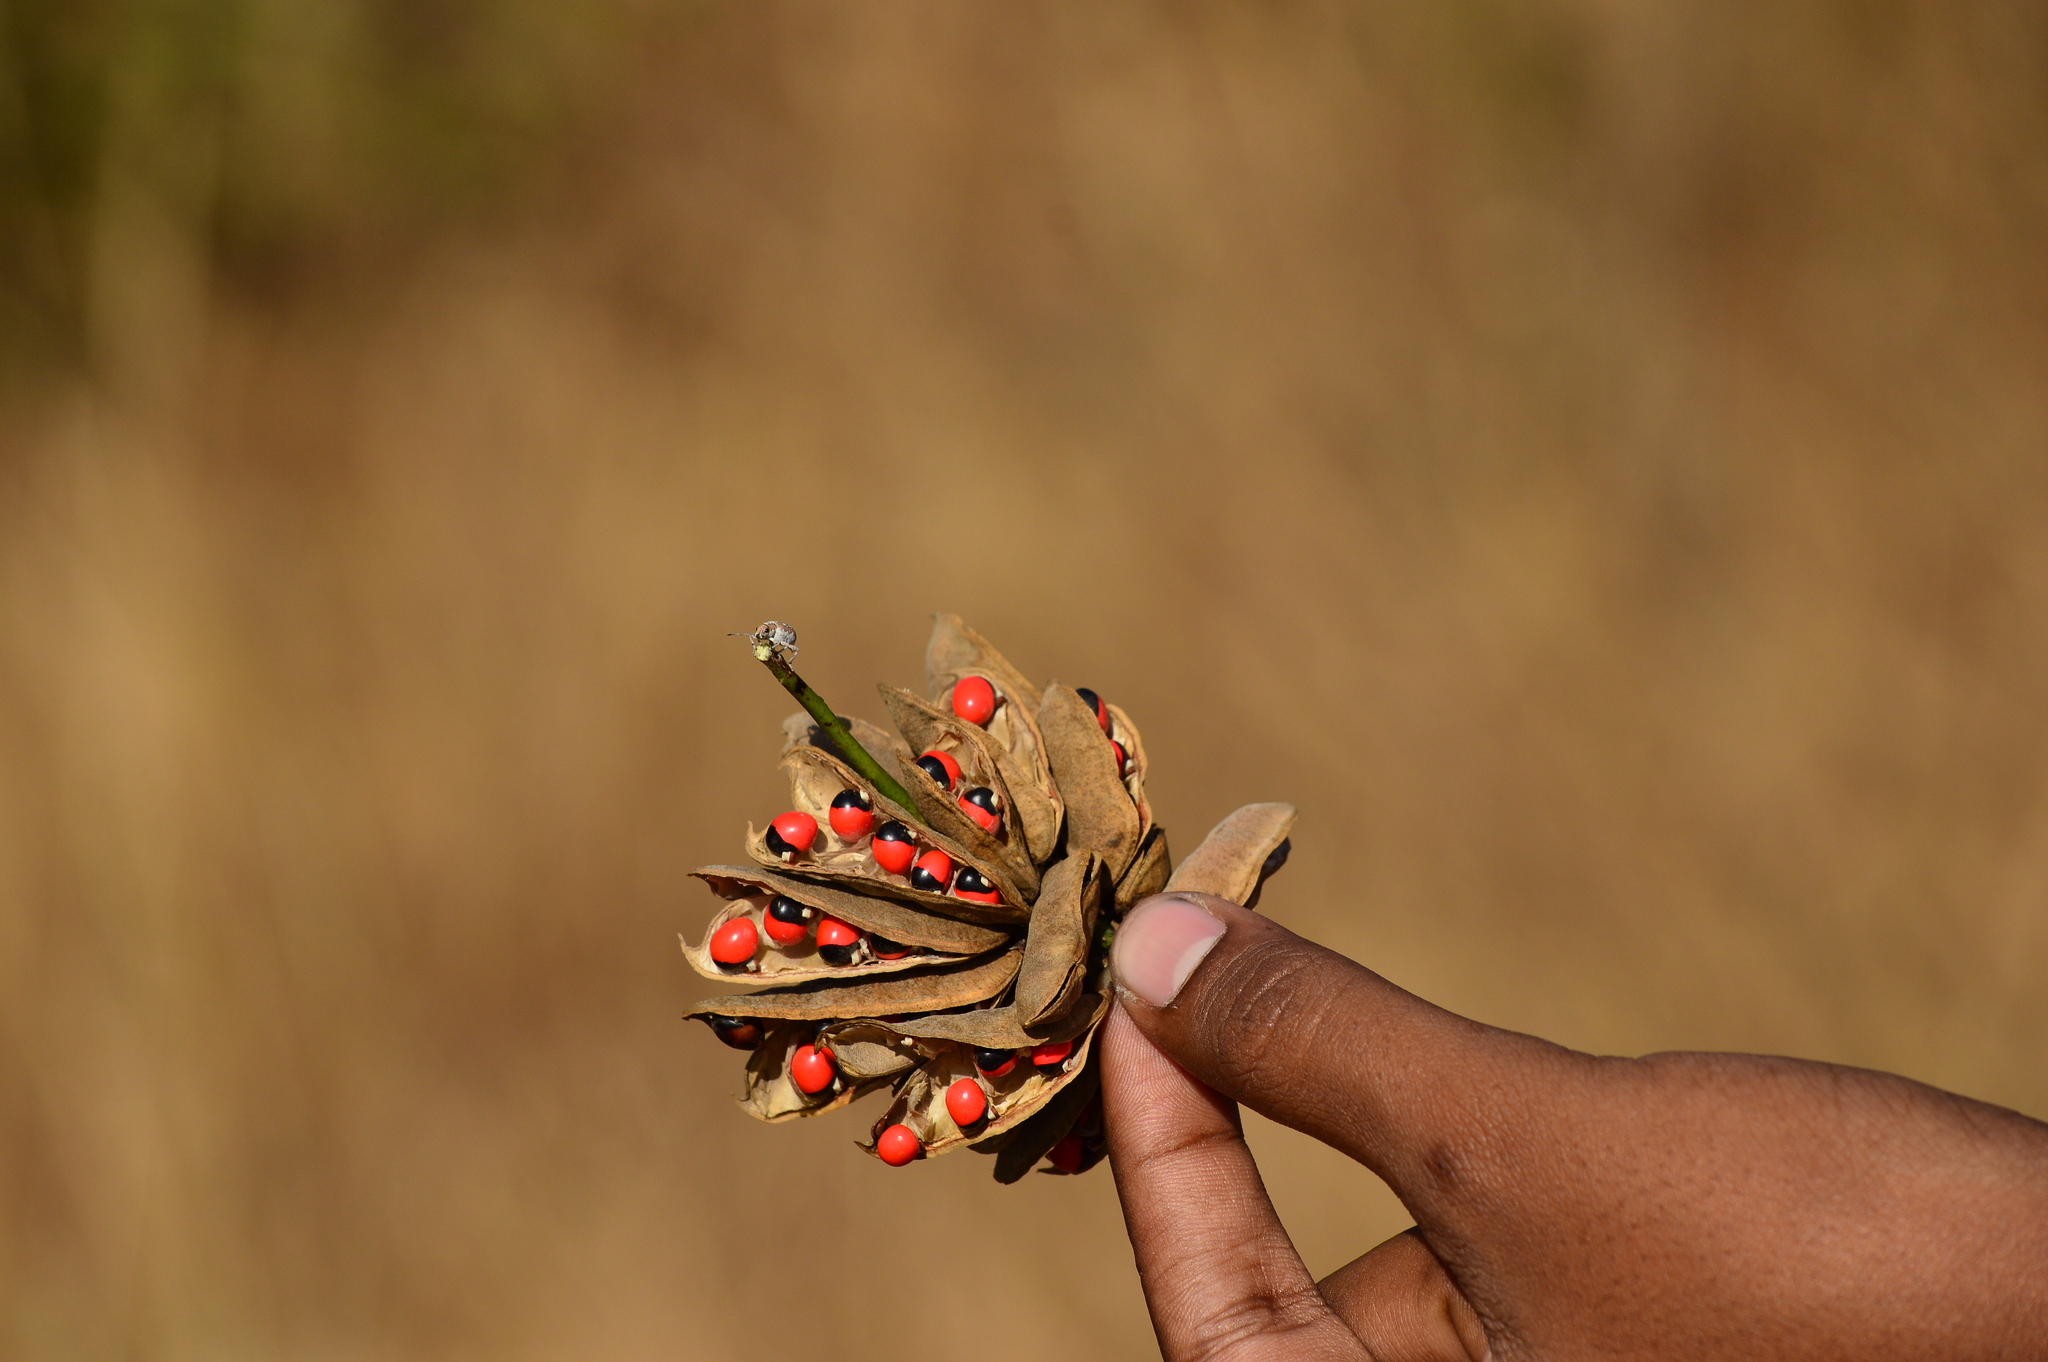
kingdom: Plantae
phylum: Tracheophyta
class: Magnoliopsida
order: Fabales
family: Fabaceae
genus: Abrus
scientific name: Abrus precatorius
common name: Rosarypea
